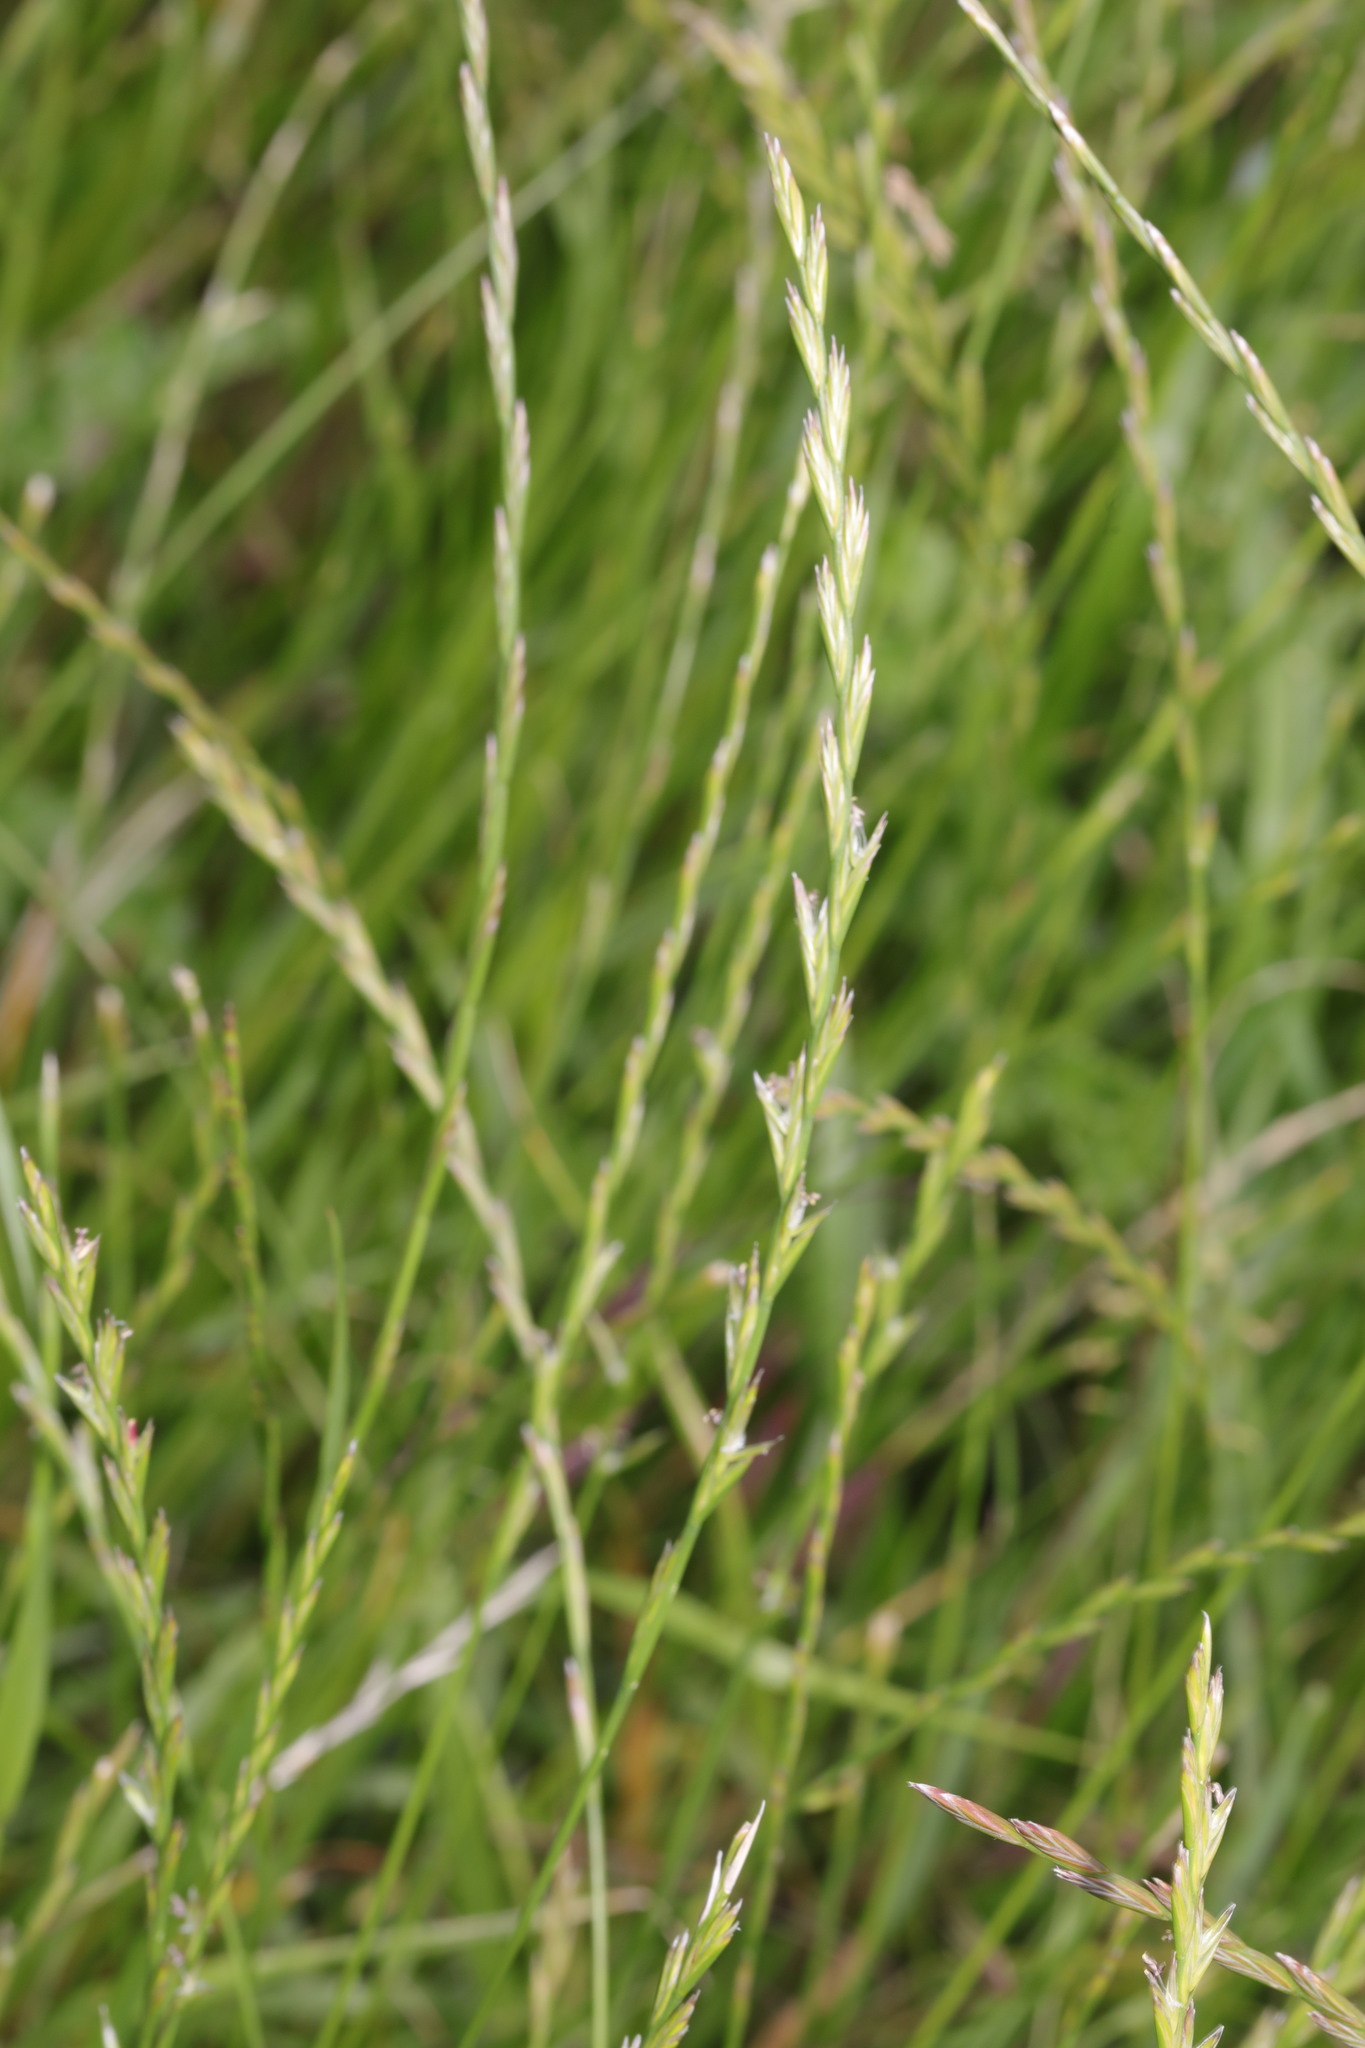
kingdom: Plantae
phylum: Tracheophyta
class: Liliopsida
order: Poales
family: Poaceae
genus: Lolium
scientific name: Lolium perenne
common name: Perennial ryegrass
